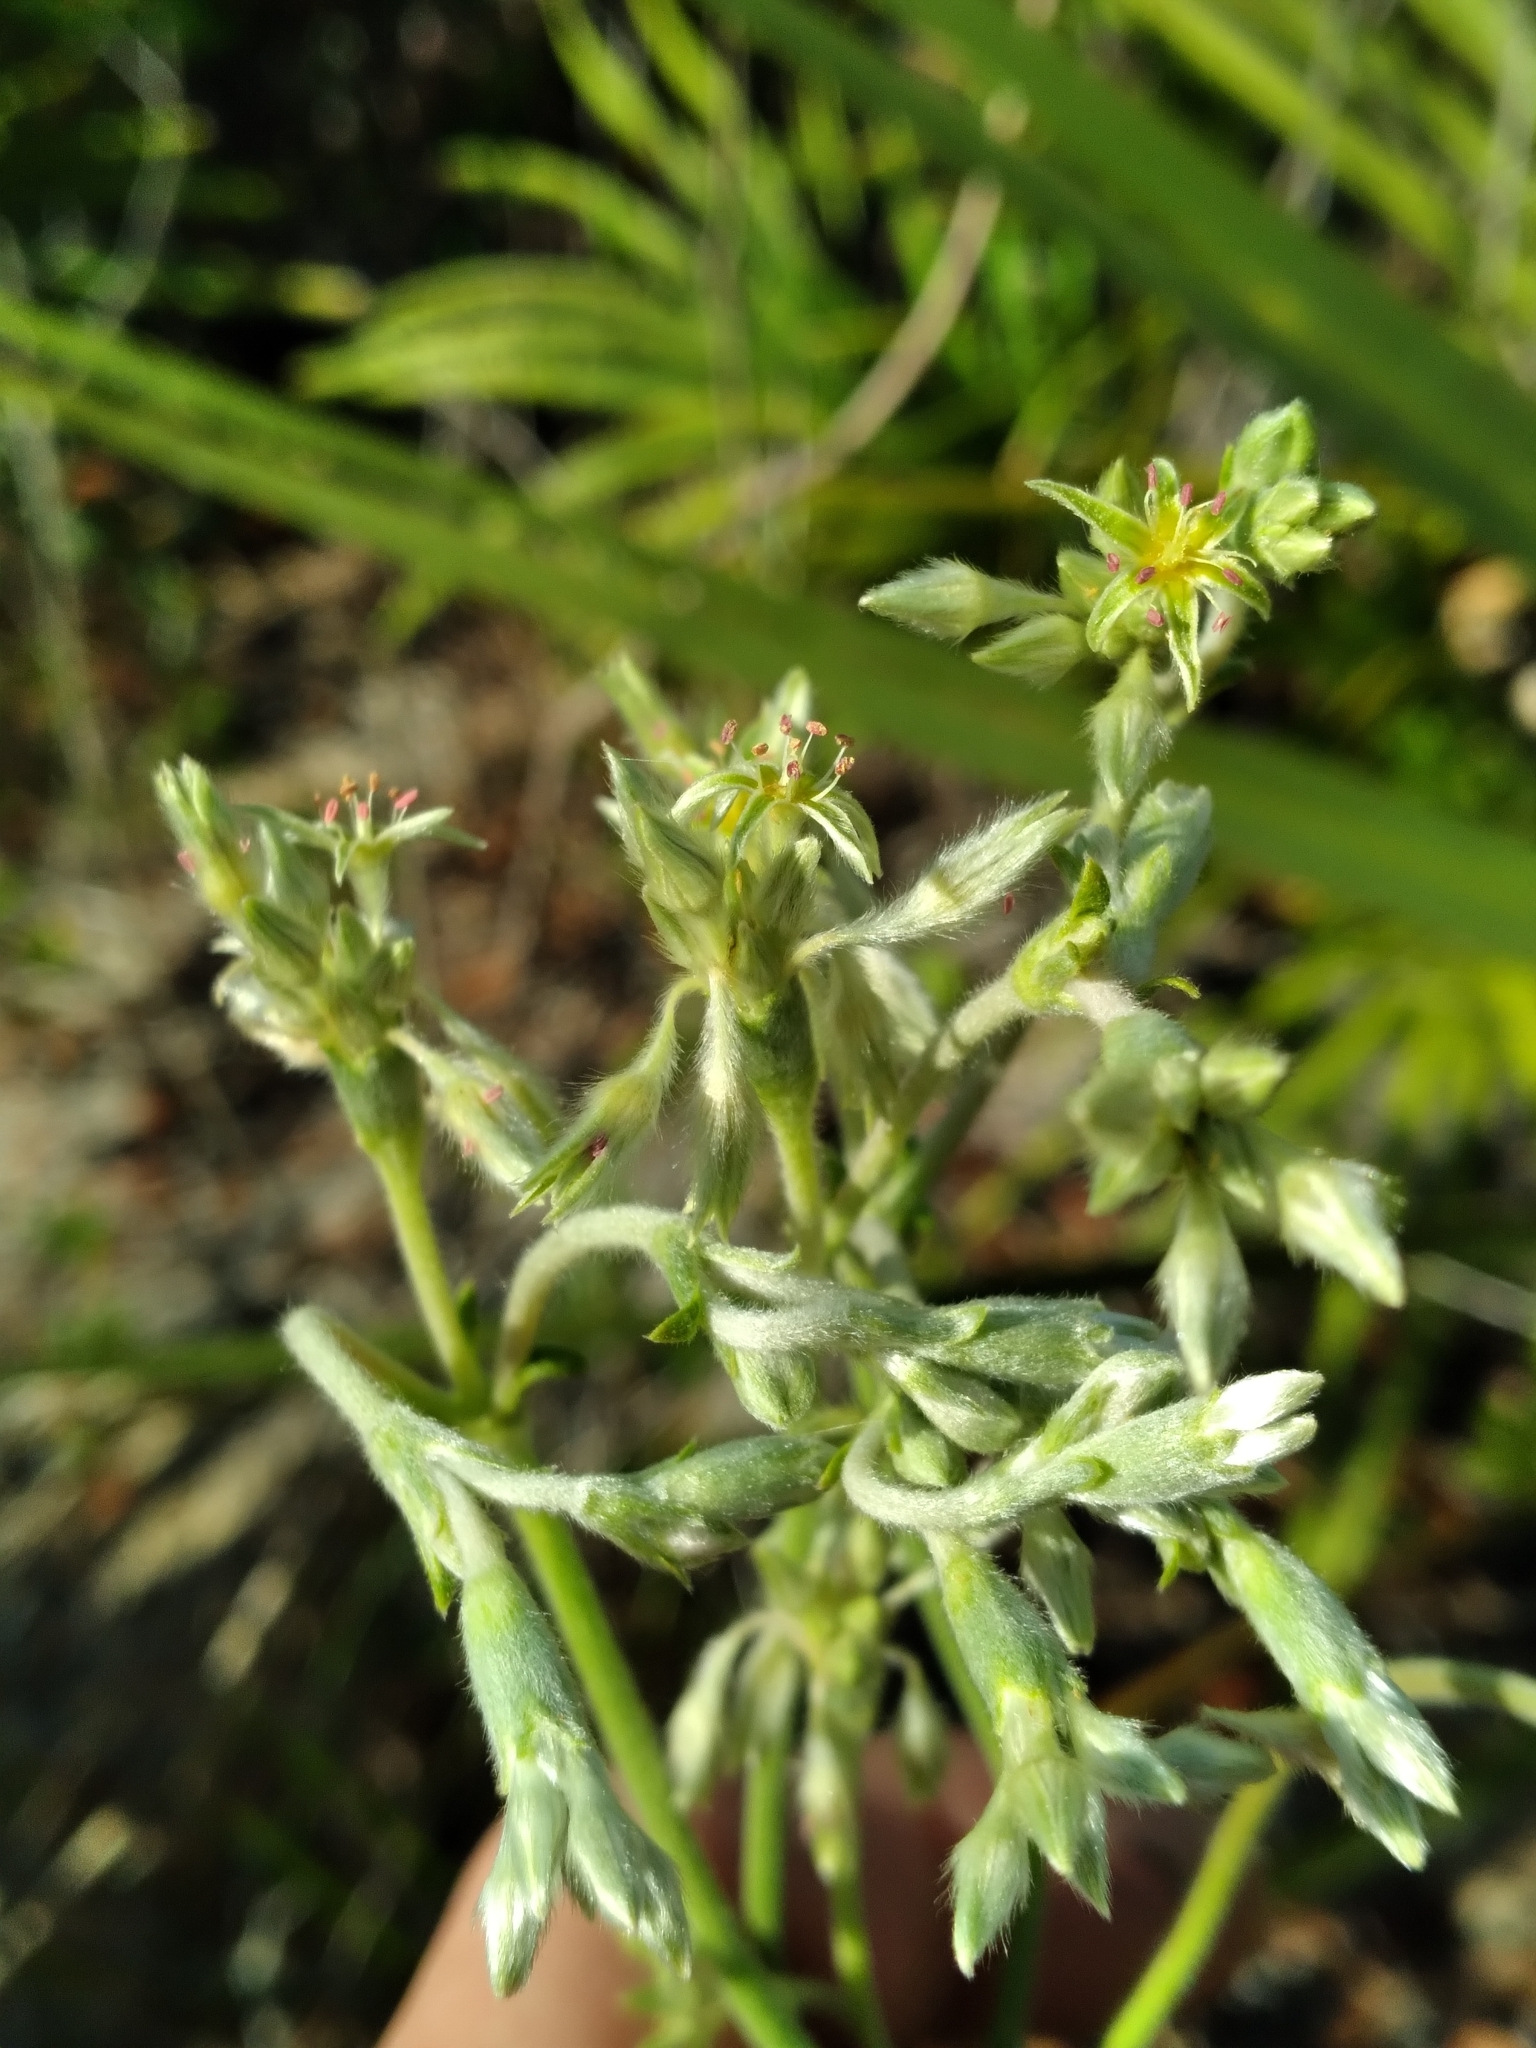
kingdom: Plantae
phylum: Tracheophyta
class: Magnoliopsida
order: Caryophyllales
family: Polygonaceae
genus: Eriogonum
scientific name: Eriogonum longifolium
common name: Longleaf wild buckwheat
